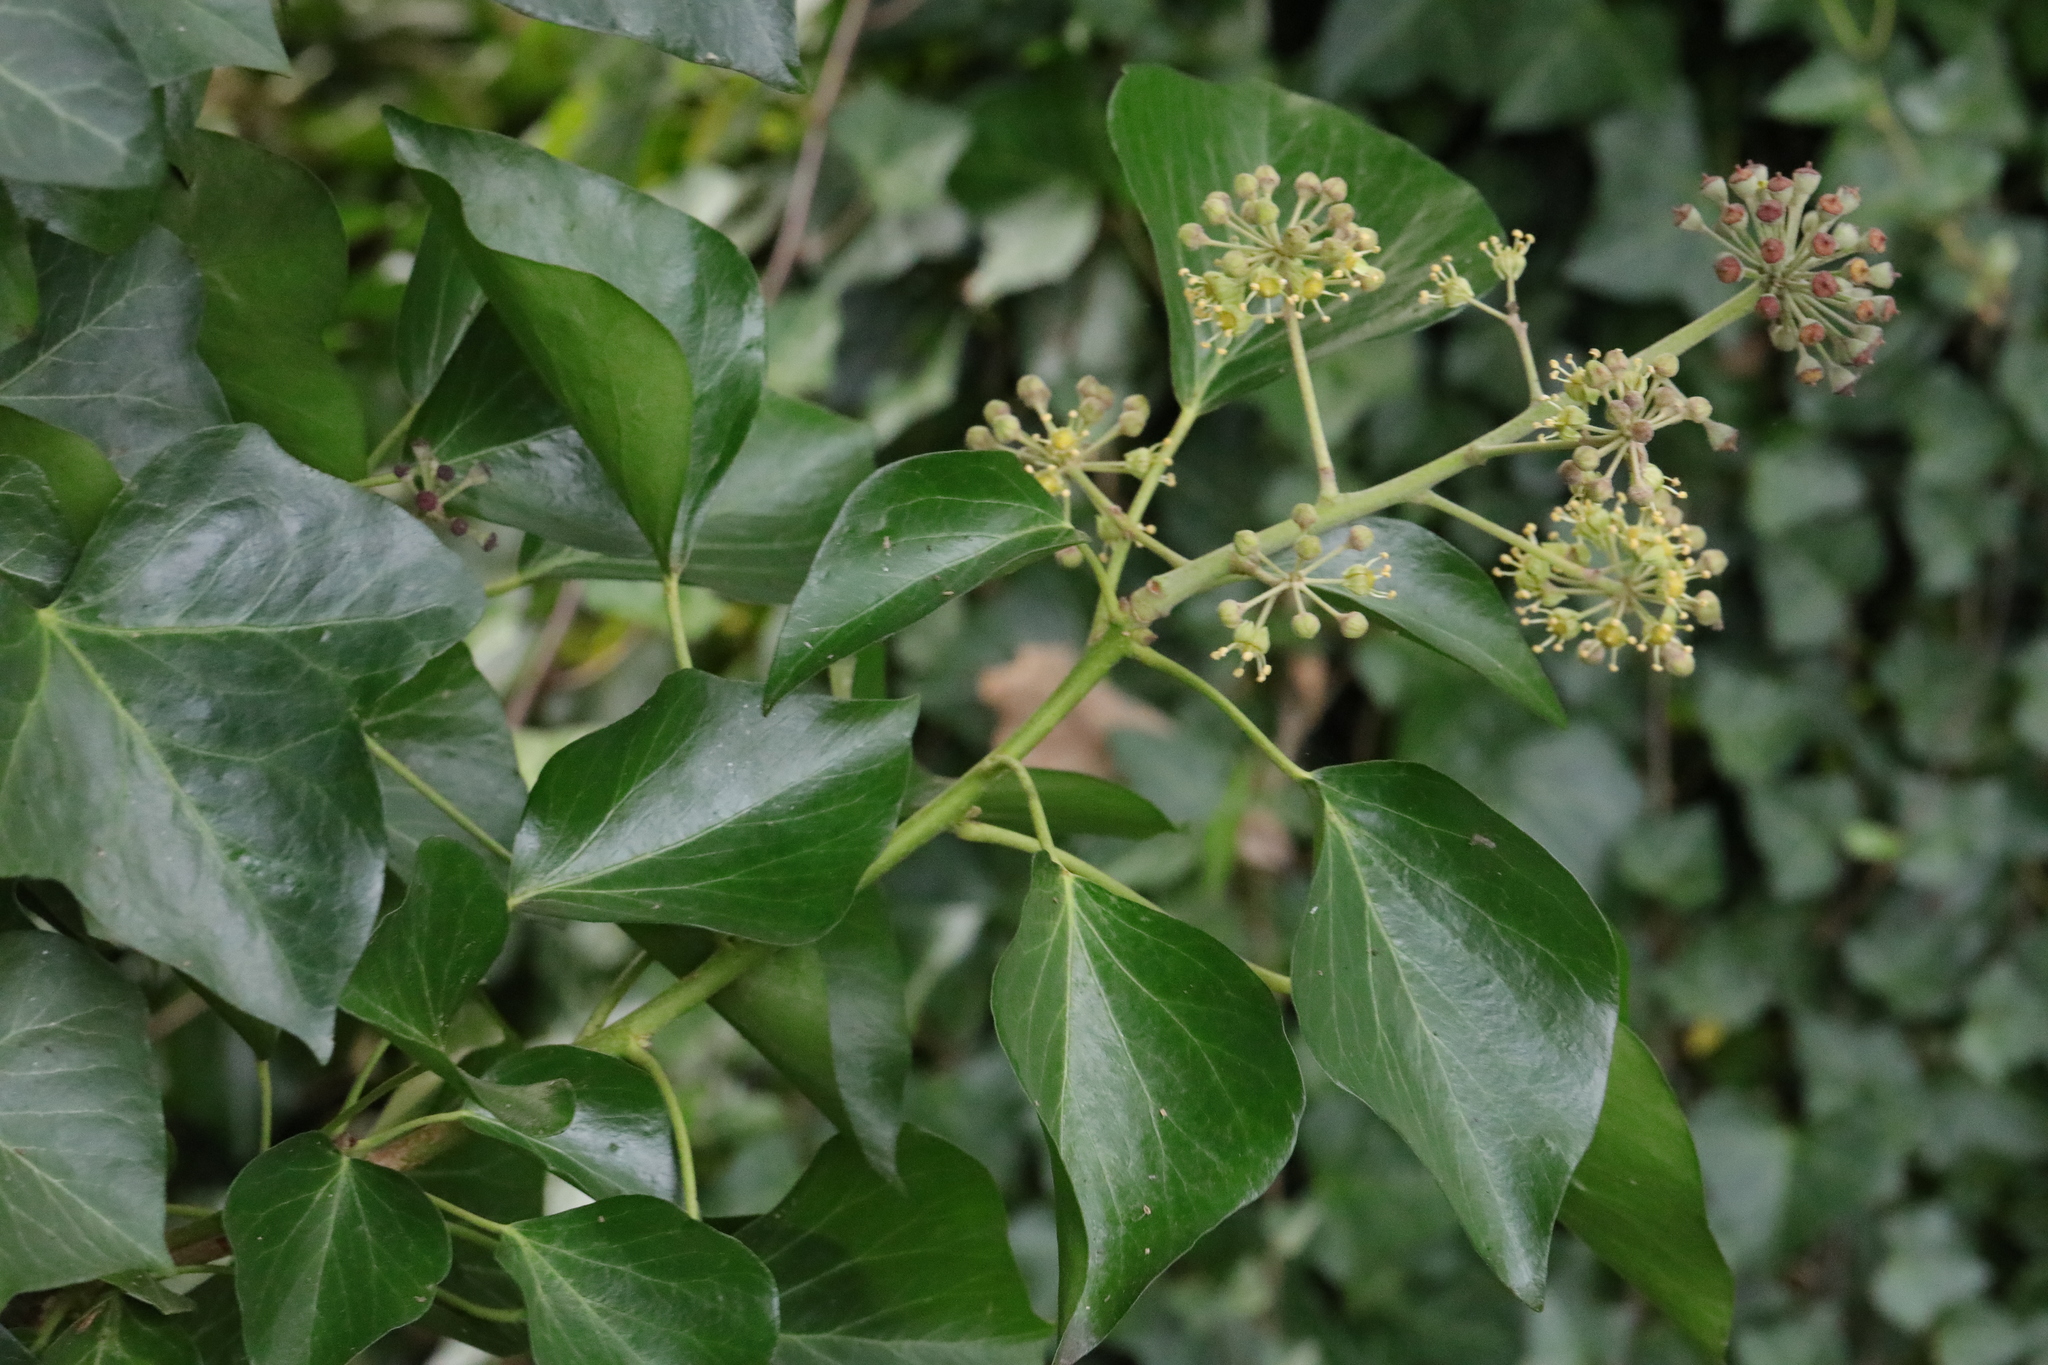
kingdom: Plantae
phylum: Tracheophyta
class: Magnoliopsida
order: Apiales
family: Araliaceae
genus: Hedera
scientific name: Hedera helix
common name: Ivy
